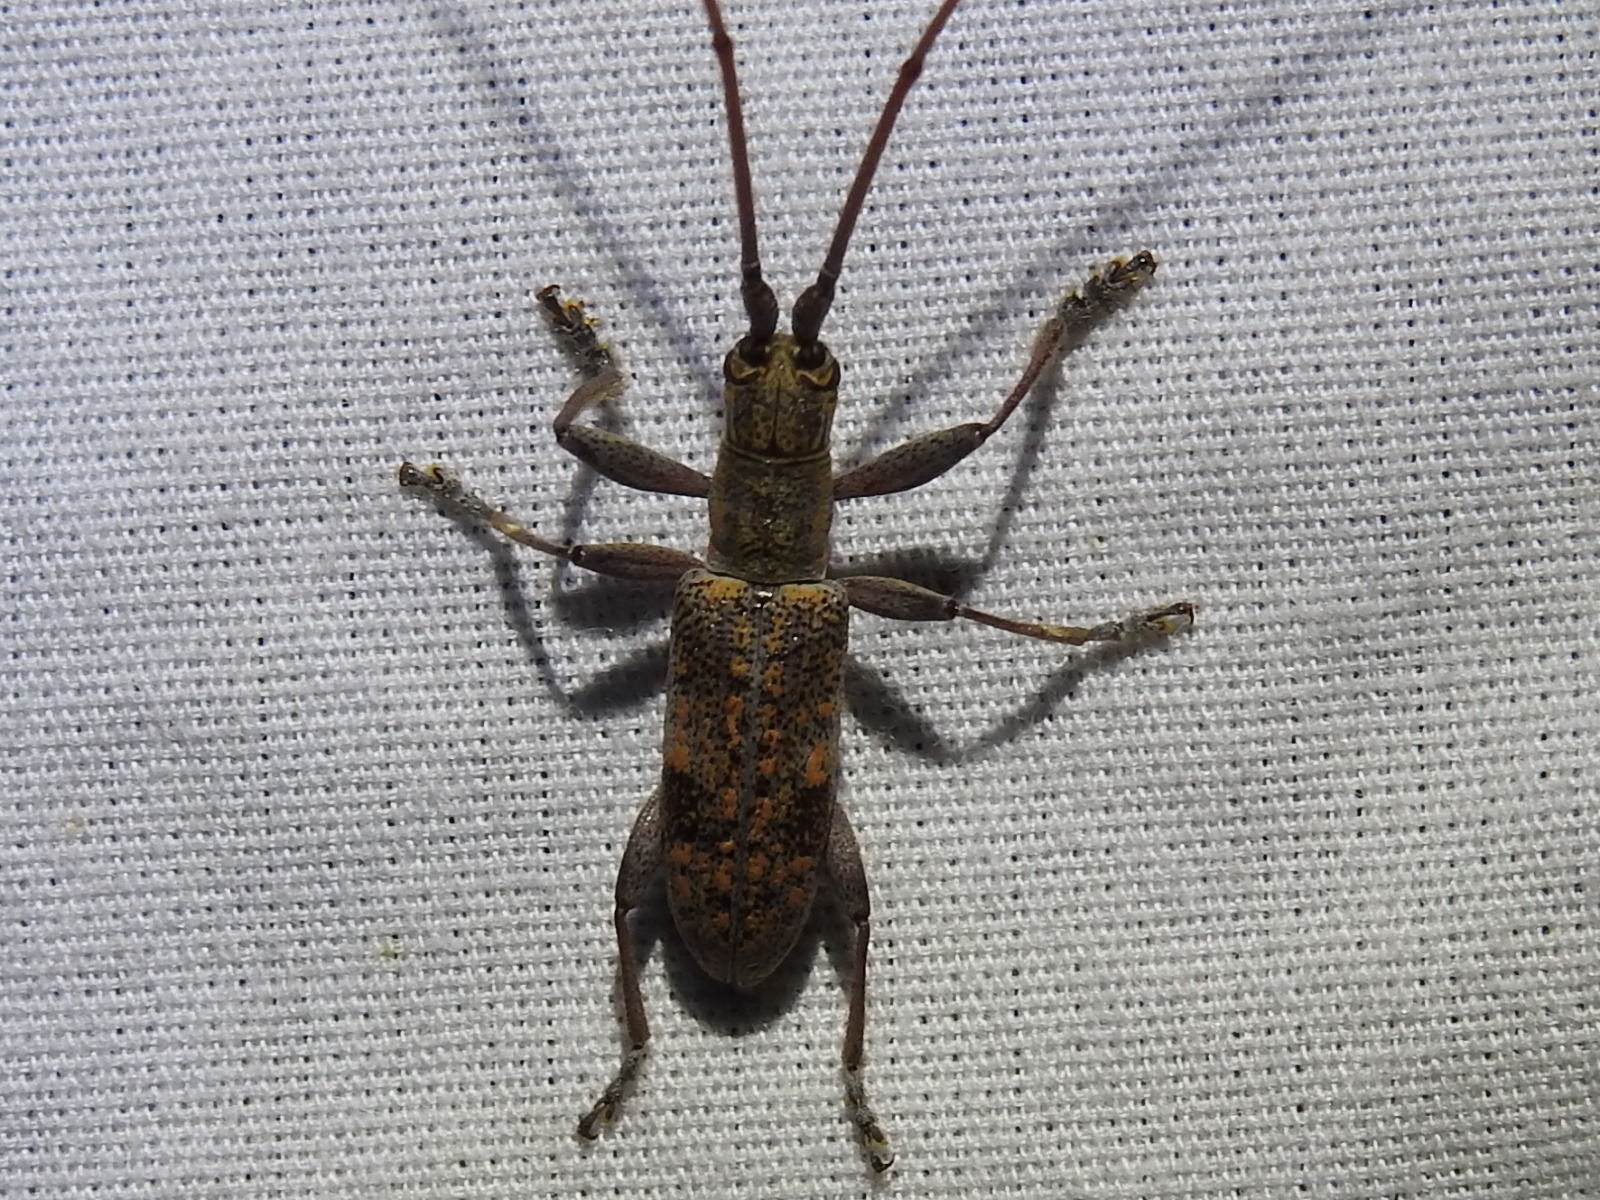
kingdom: Animalia
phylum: Arthropoda
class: Insecta
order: Coleoptera
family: Cerambycidae
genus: Dorcaschema
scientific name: Dorcaschema alternatum
